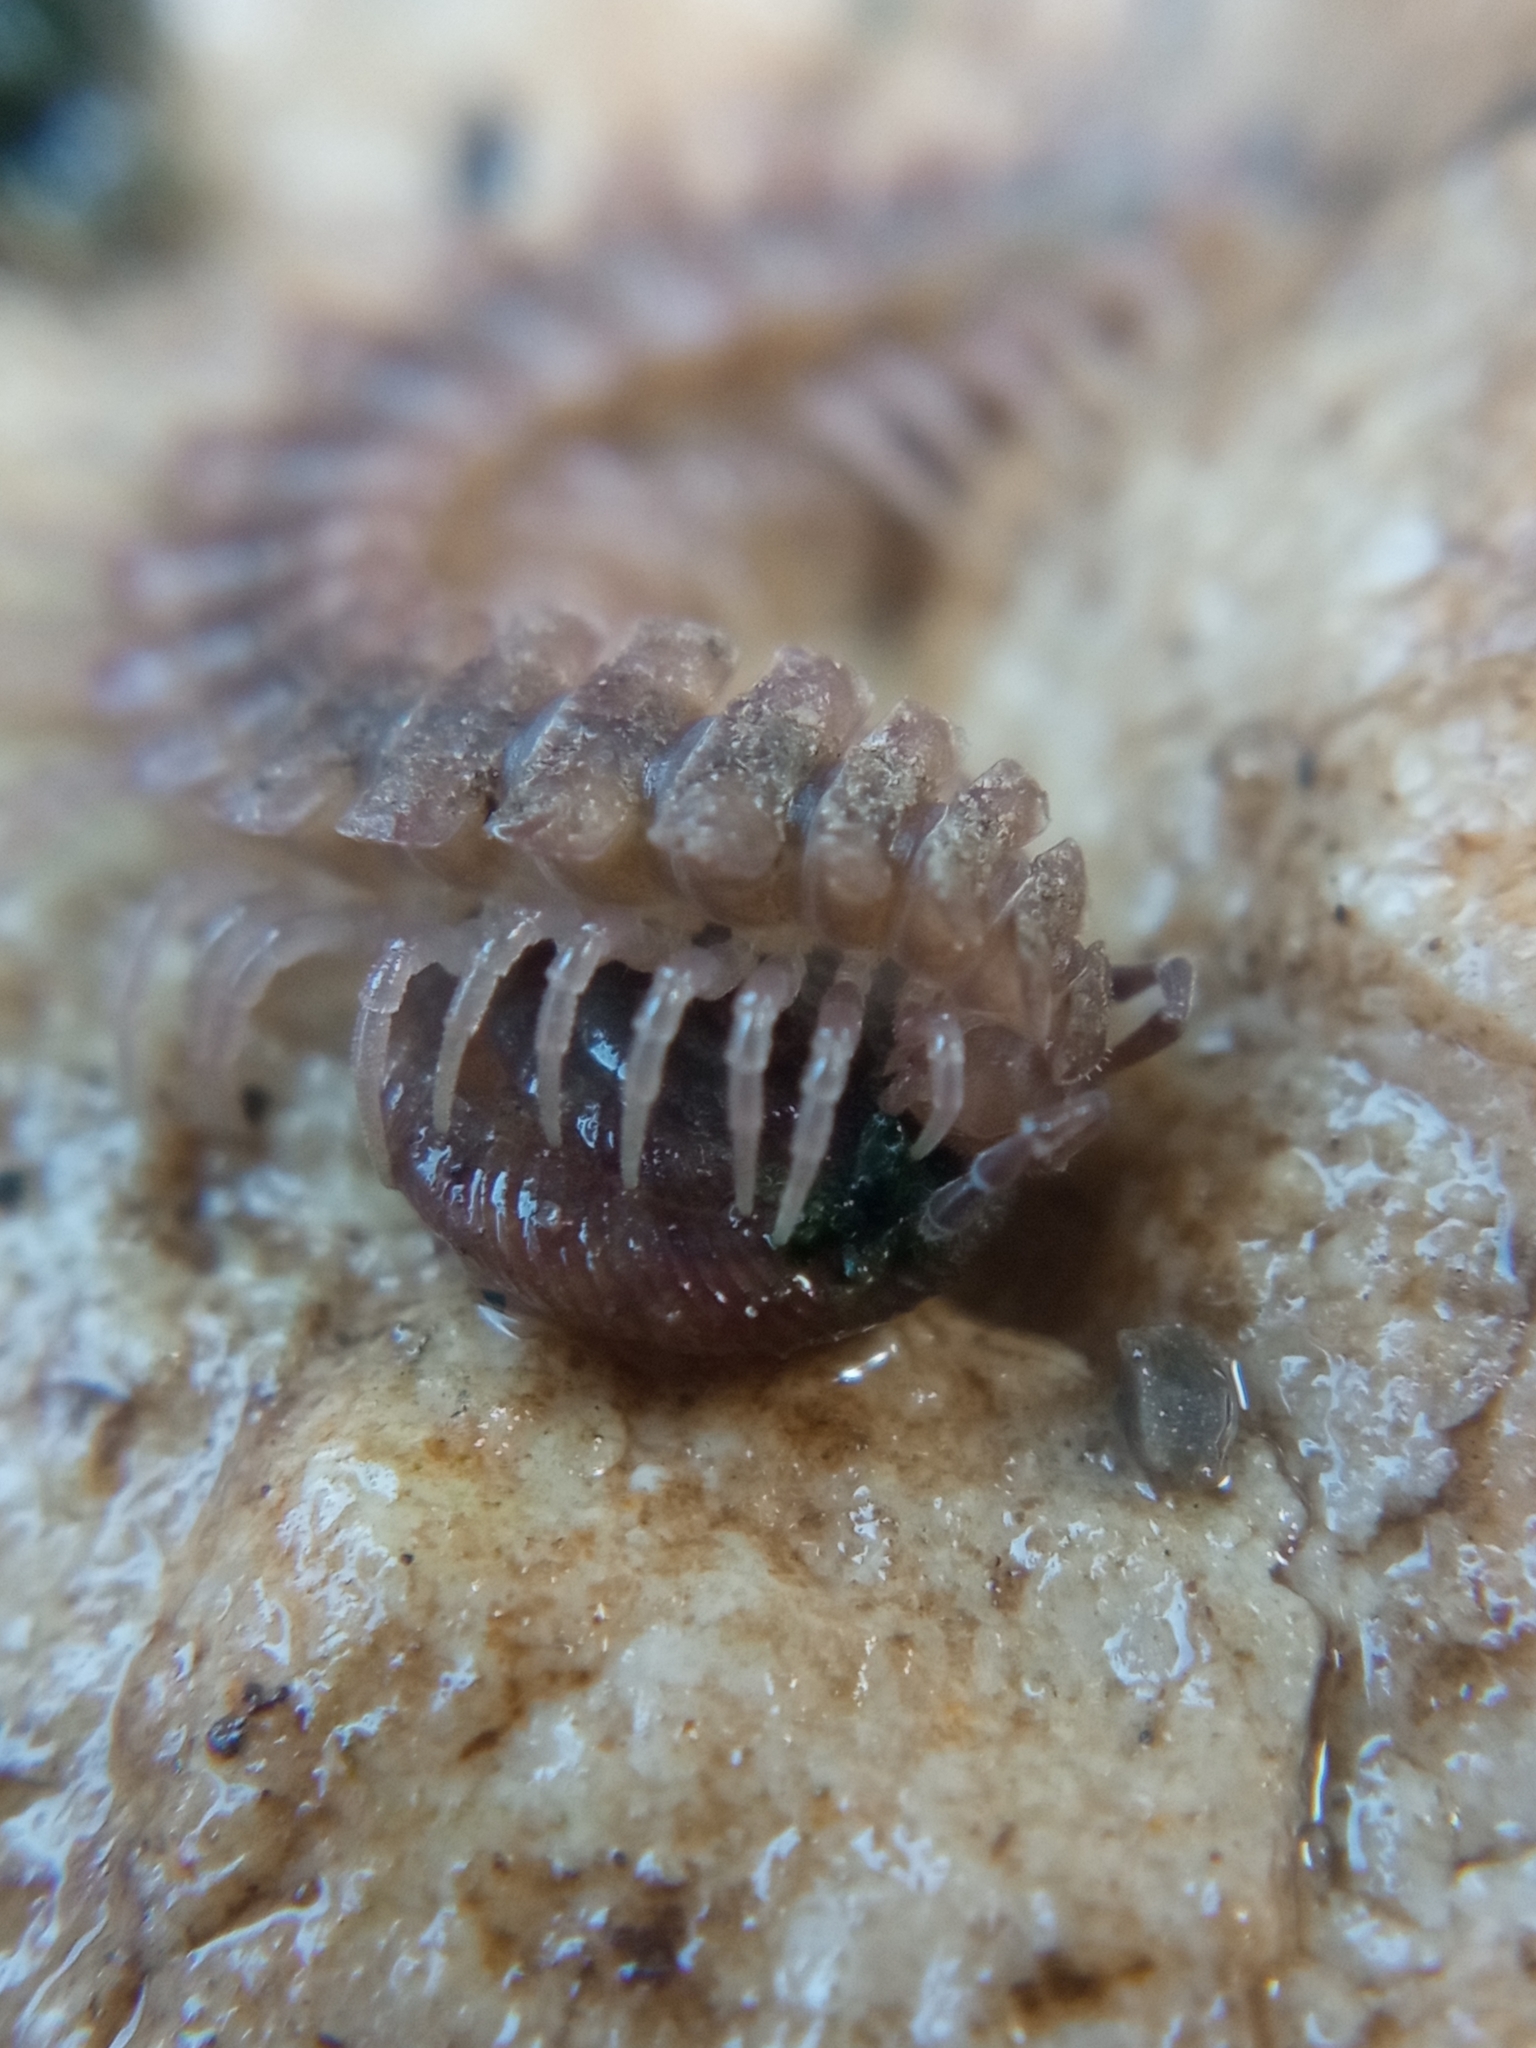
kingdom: Animalia
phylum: Mollusca
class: Gastropoda
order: Stylommatophora
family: Discidae
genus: Discus
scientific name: Discus rotundatus
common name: Rounded snail
